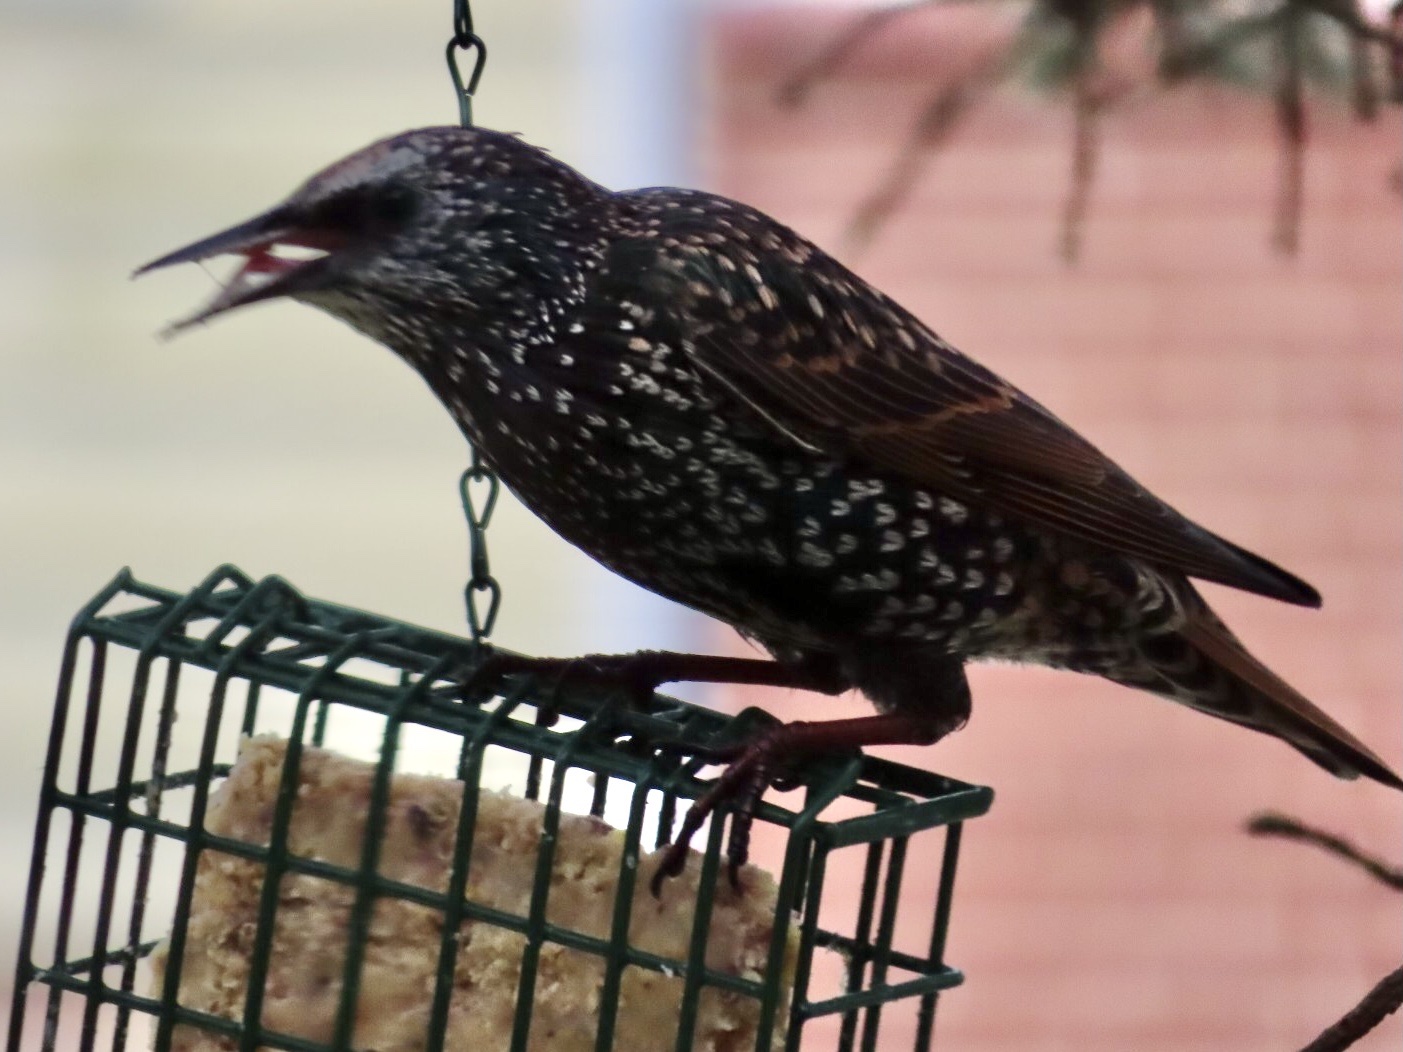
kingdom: Animalia
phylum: Chordata
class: Aves
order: Passeriformes
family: Sturnidae
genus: Sturnus
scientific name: Sturnus vulgaris
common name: Common starling
